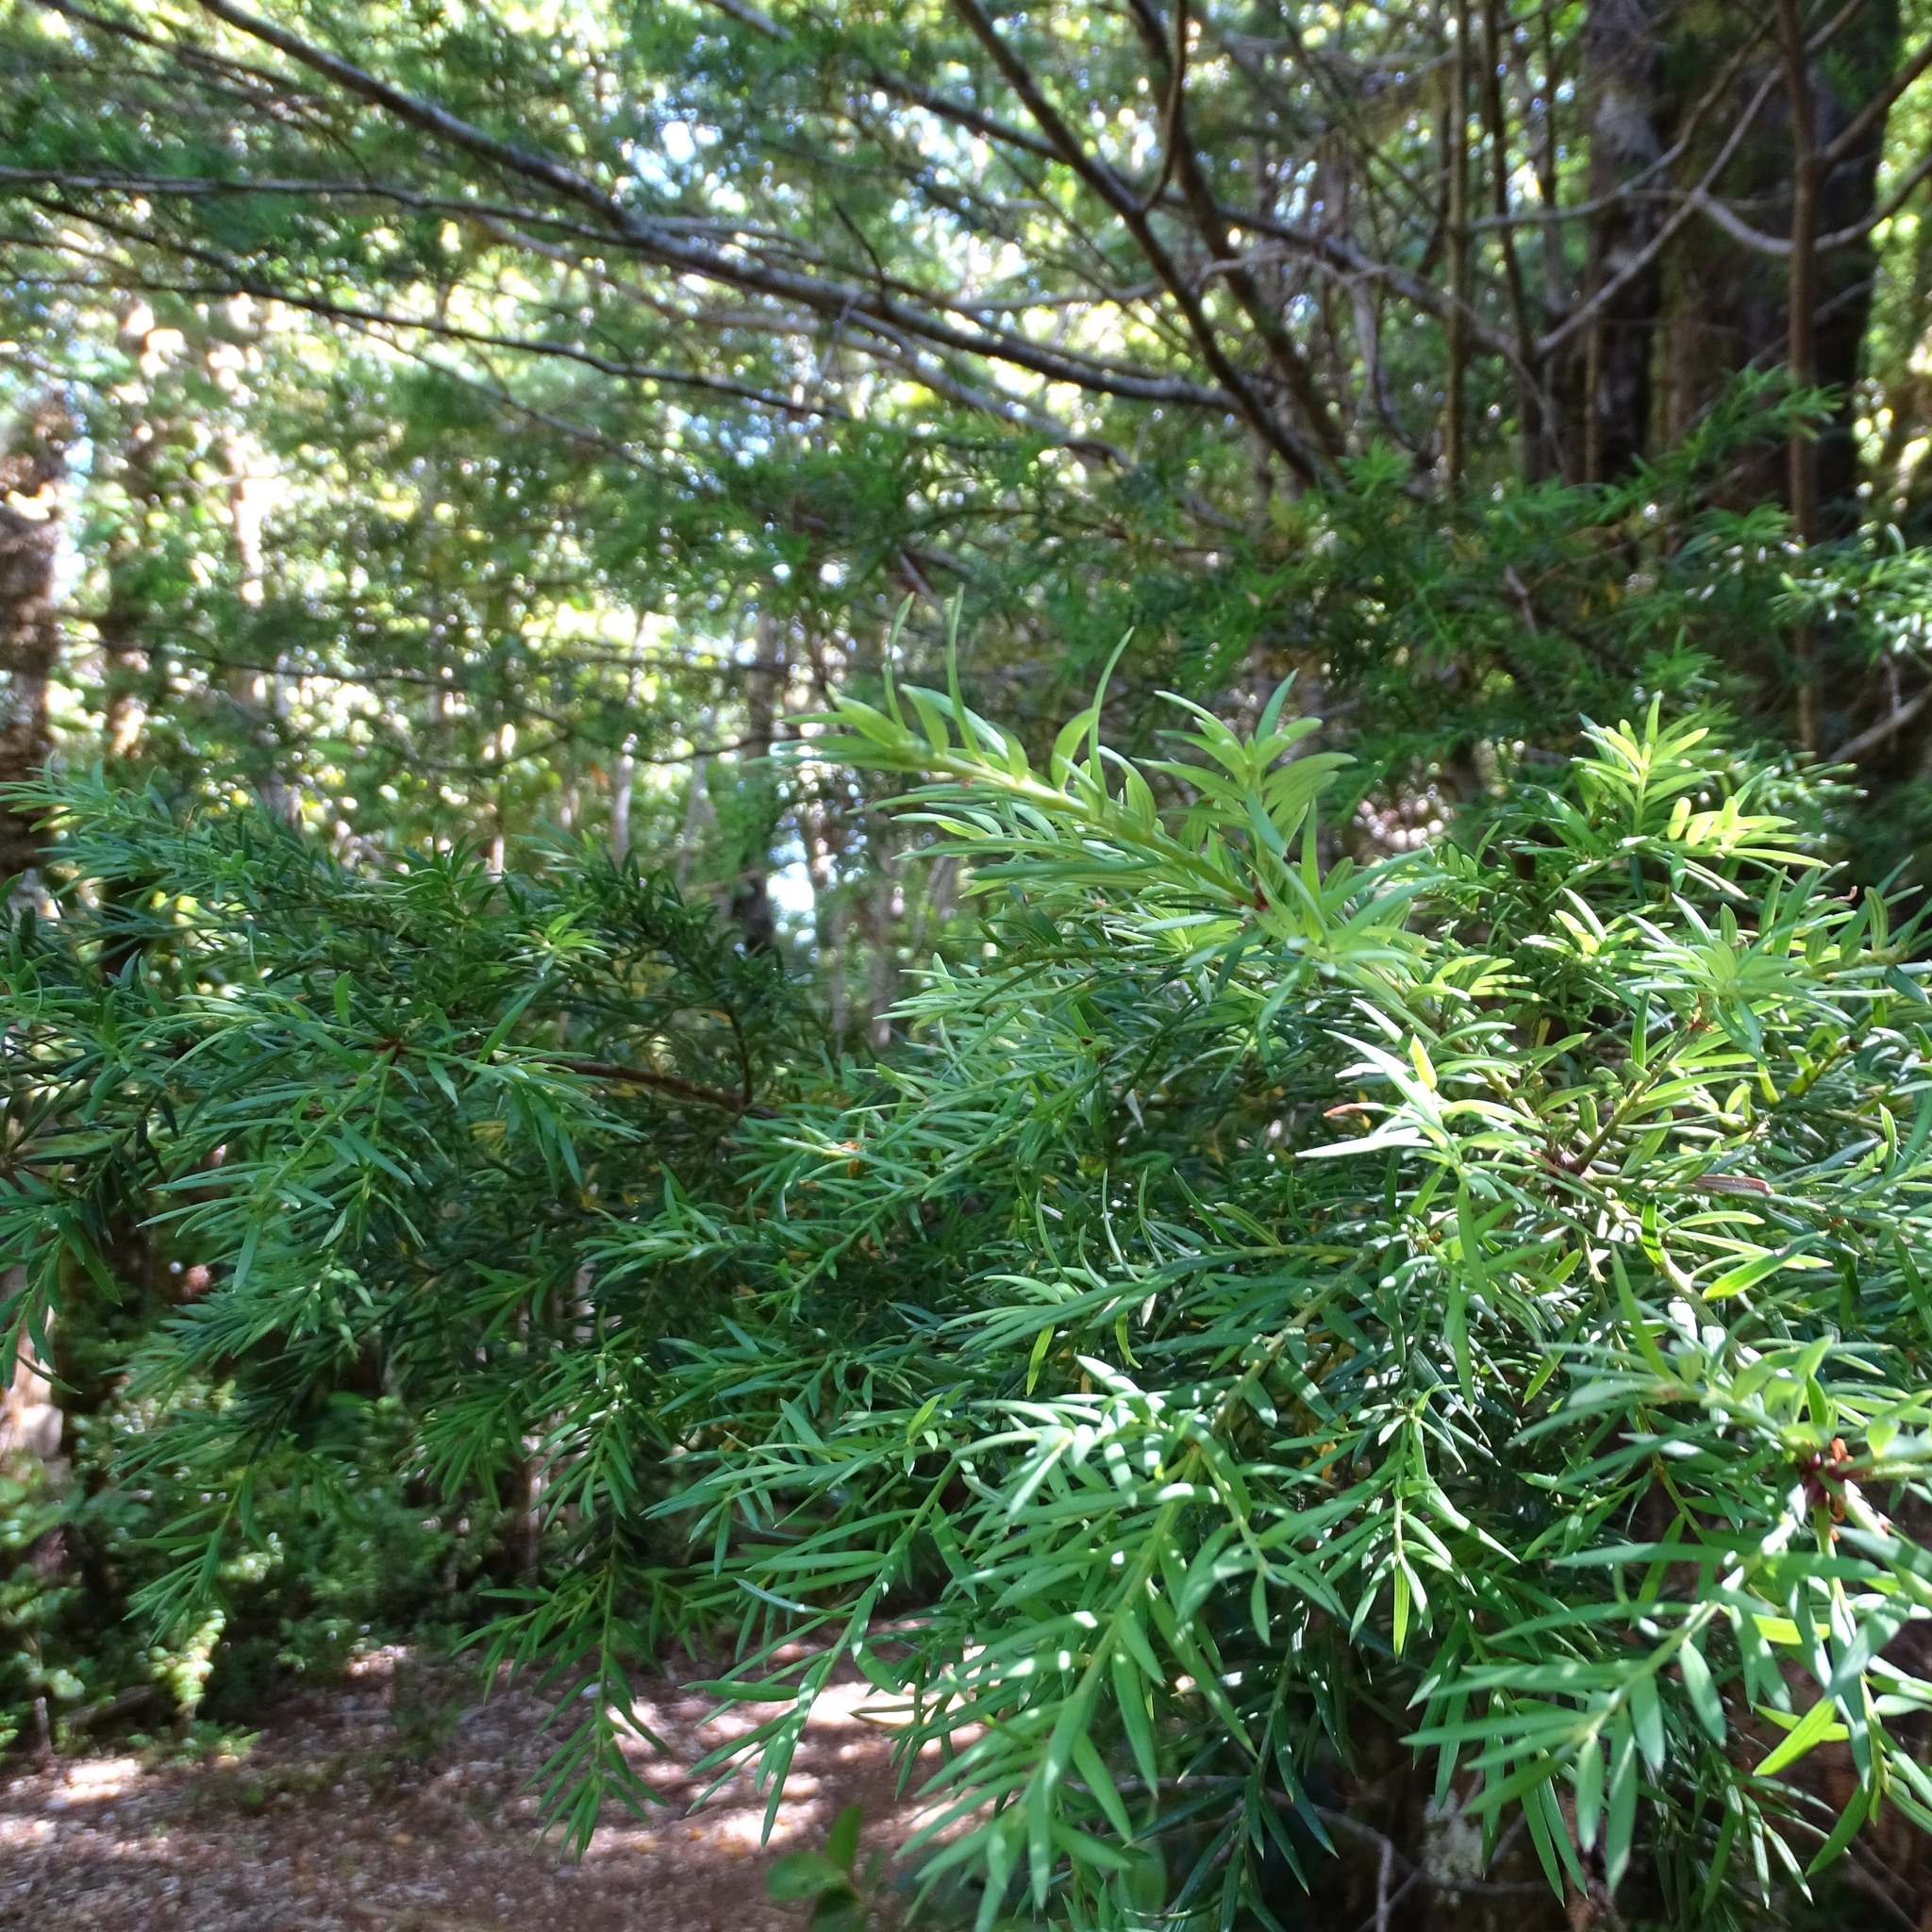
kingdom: Plantae
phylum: Tracheophyta
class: Pinopsida
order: Pinales
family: Podocarpaceae
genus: Saxegothaea
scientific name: Saxegothaea conspicua
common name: Prince albert's yew
